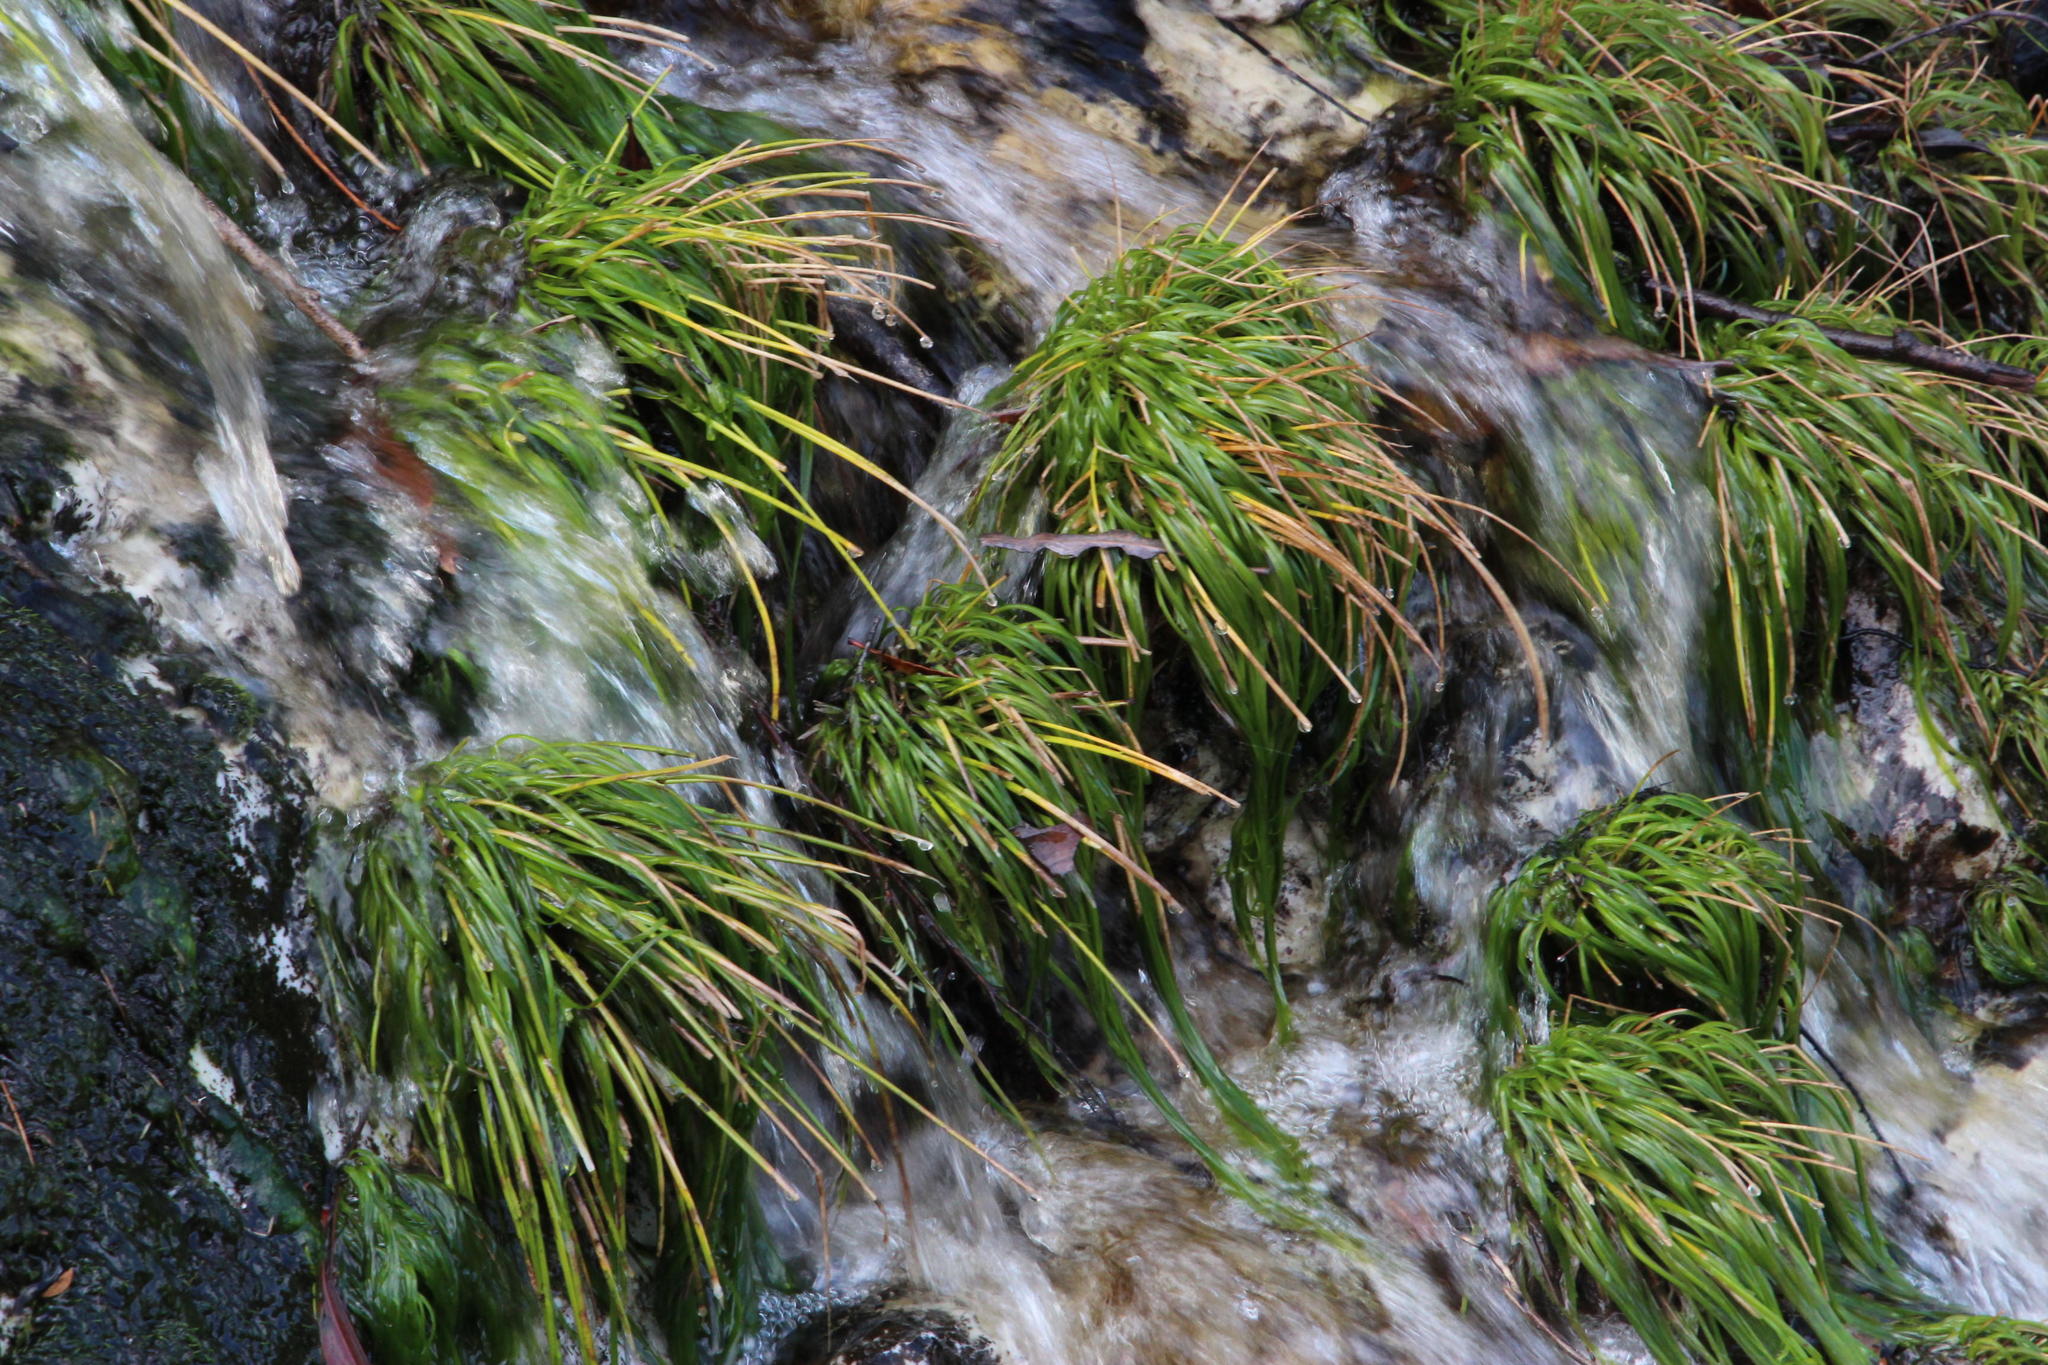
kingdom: Plantae
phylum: Tracheophyta
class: Liliopsida
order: Poales
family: Cyperaceae
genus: Isolepis
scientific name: Isolepis digitata
